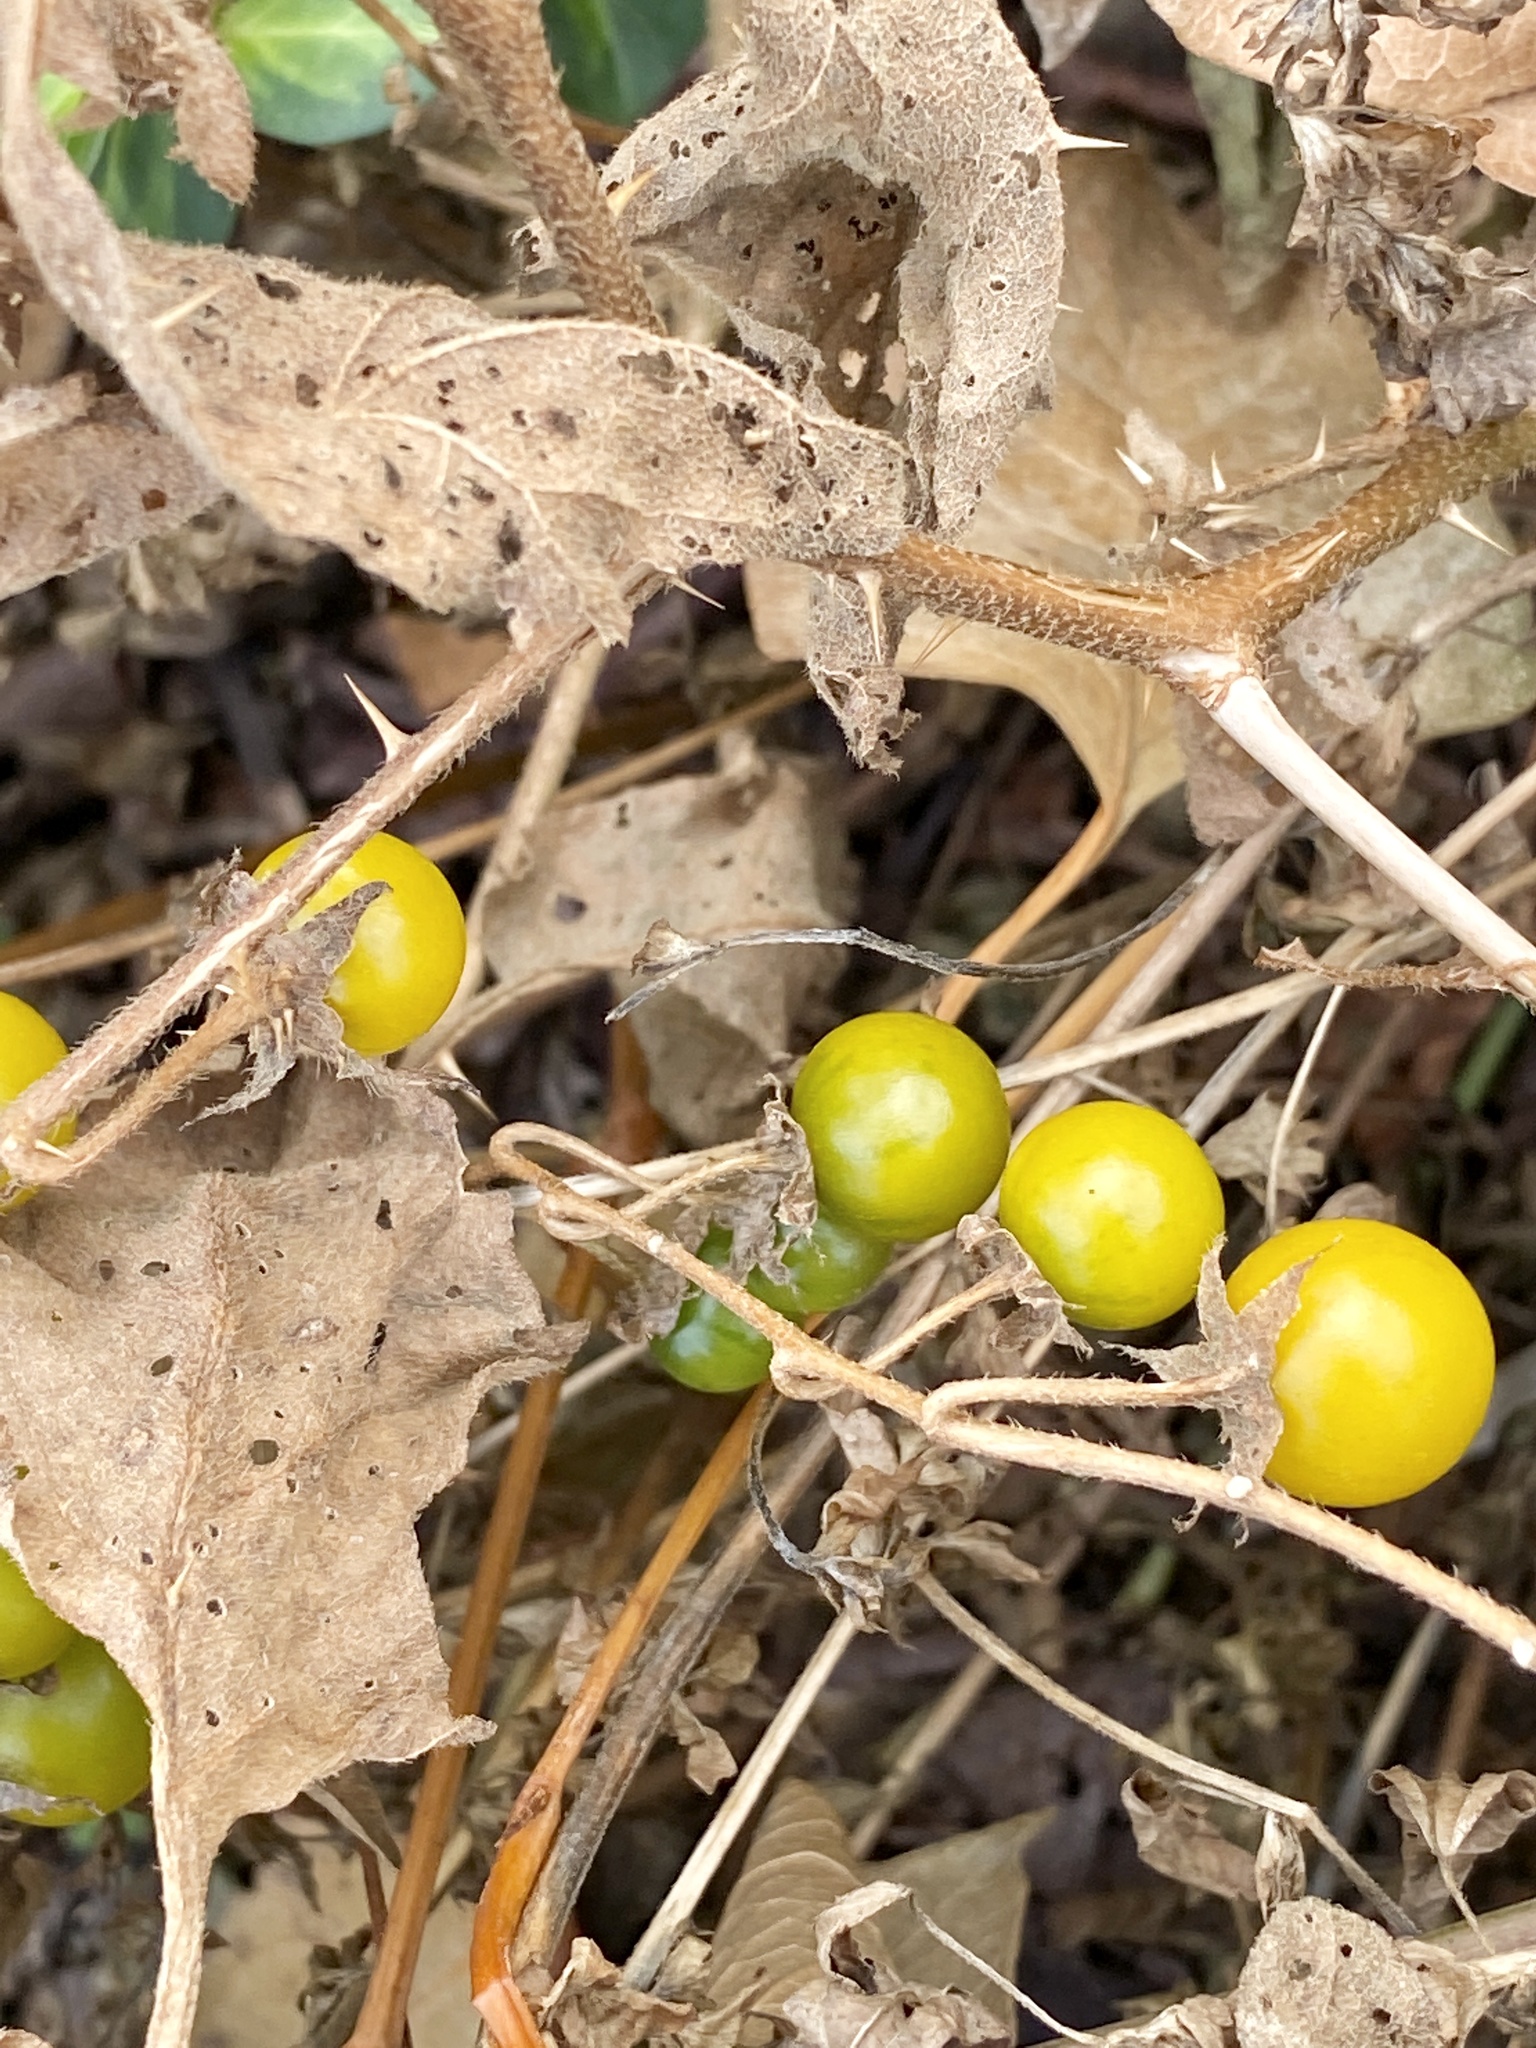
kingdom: Plantae
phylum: Tracheophyta
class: Magnoliopsida
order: Solanales
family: Solanaceae
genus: Solanum
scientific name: Solanum carolinense
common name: Horse-nettle
